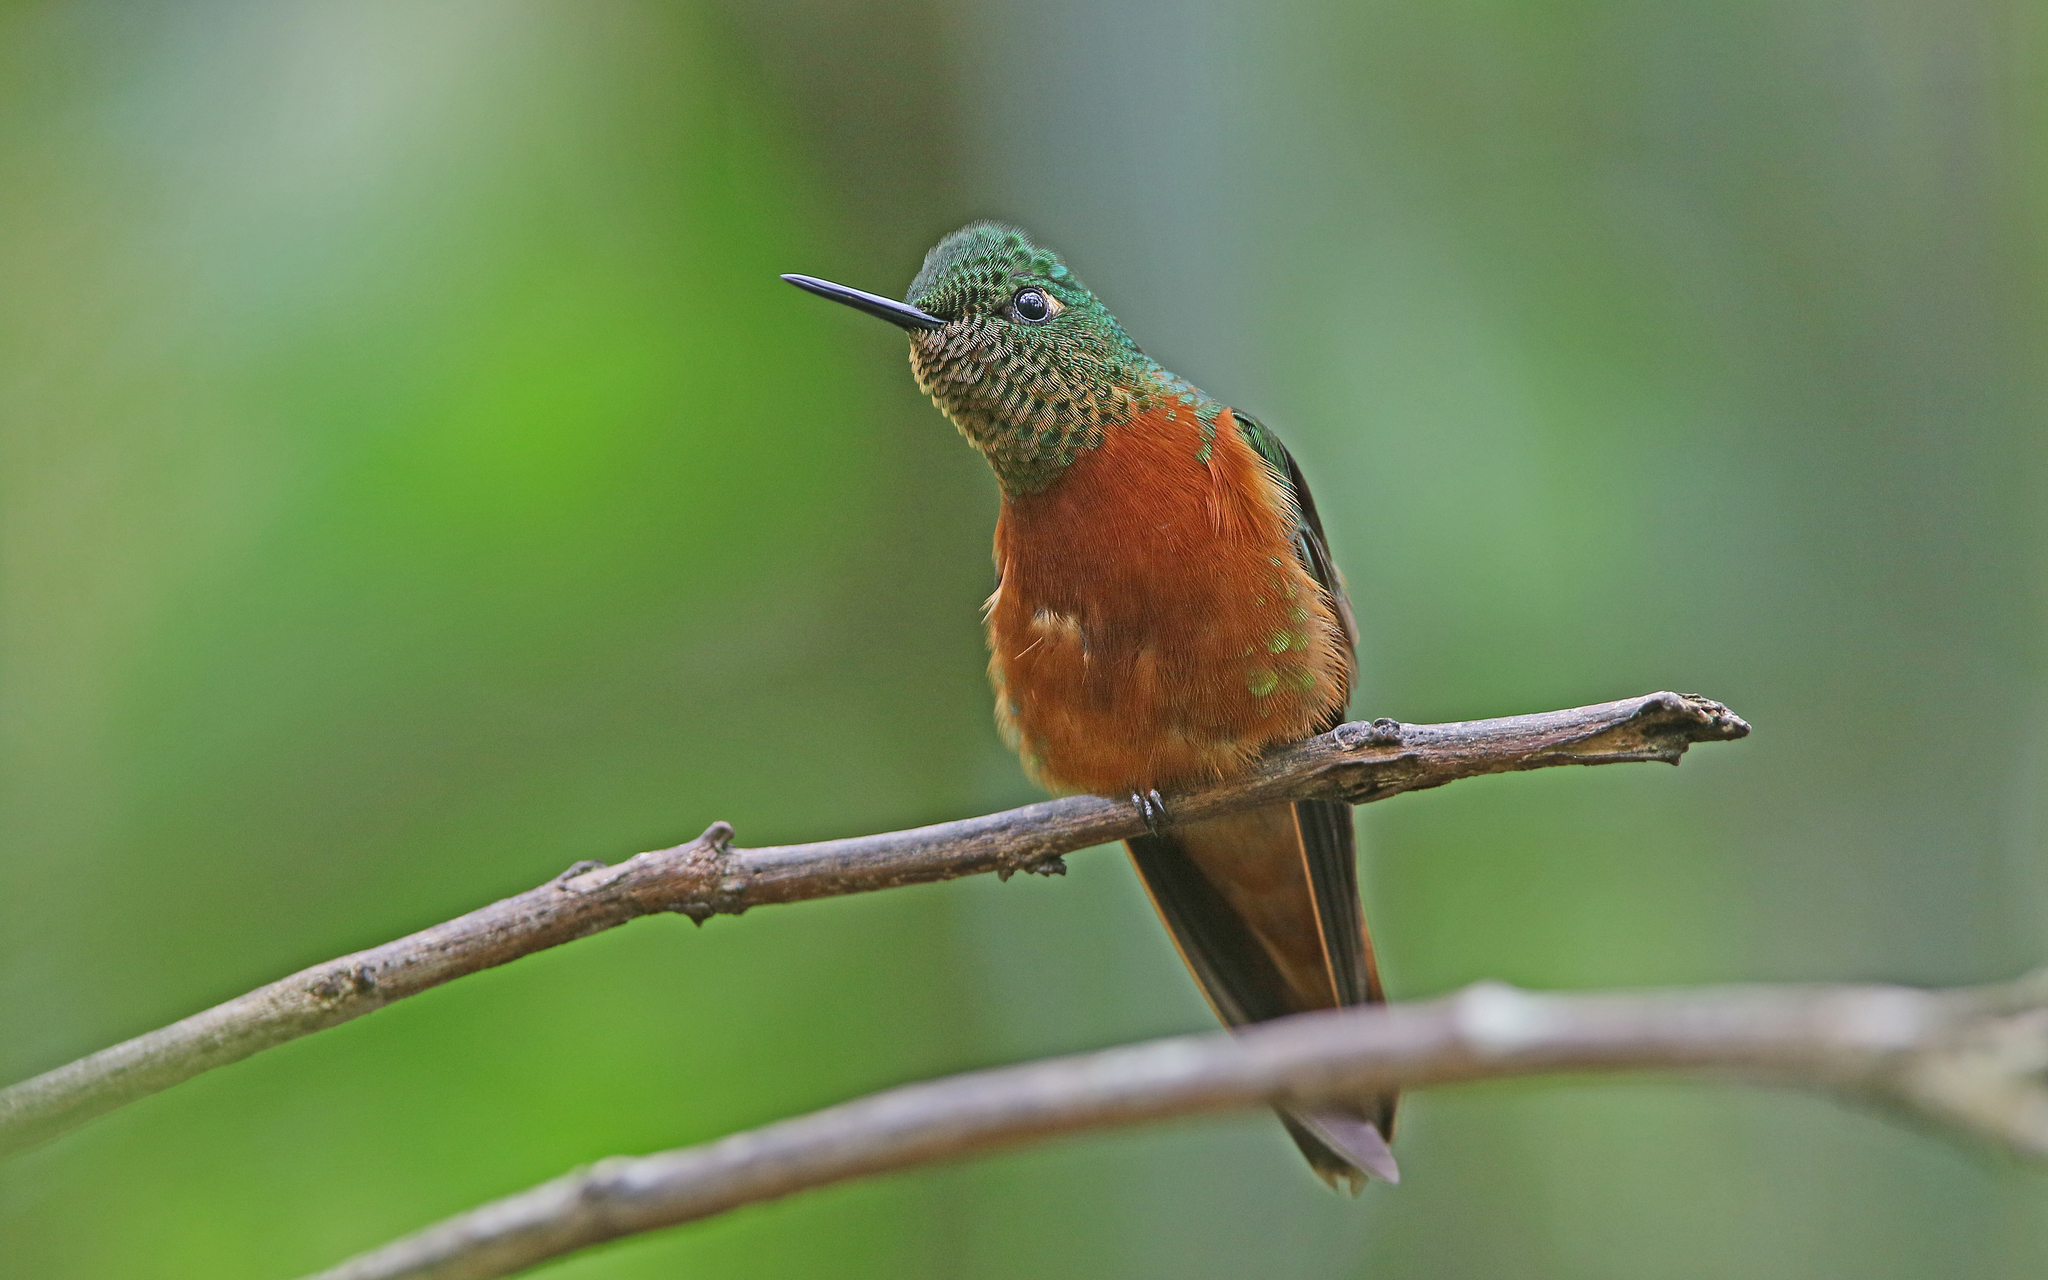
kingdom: Animalia
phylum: Chordata
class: Aves
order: Apodiformes
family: Trochilidae
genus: Boissonneaua
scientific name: Boissonneaua matthewsii
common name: Chestnut-breasted coronet
